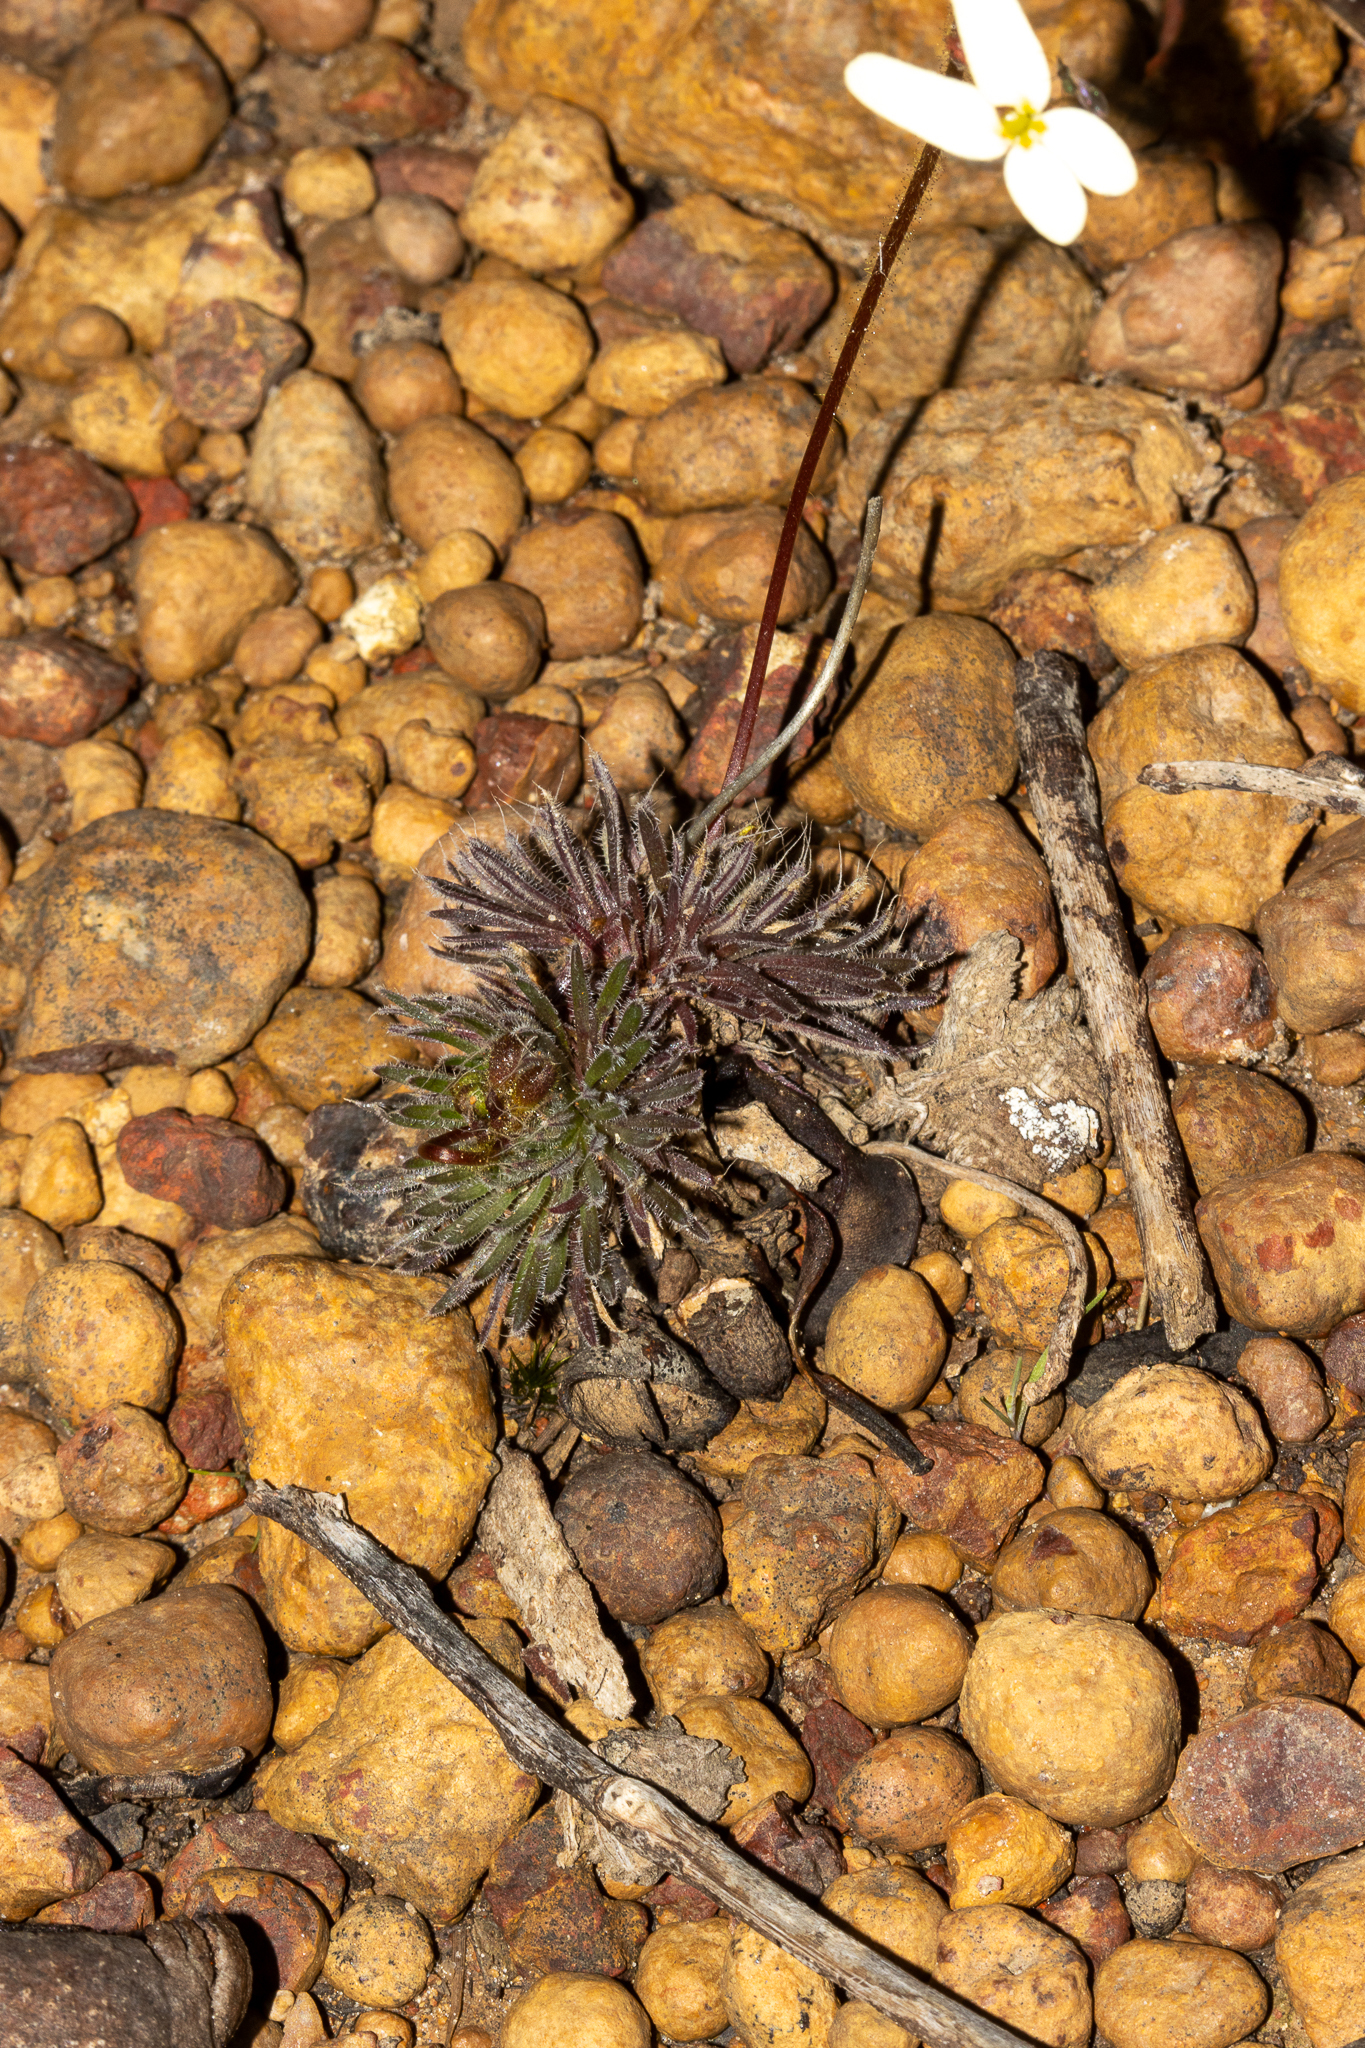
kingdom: Plantae
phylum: Tracheophyta
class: Magnoliopsida
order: Asterales
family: Stylidiaceae
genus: Stylidium
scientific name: Stylidium hispidum
